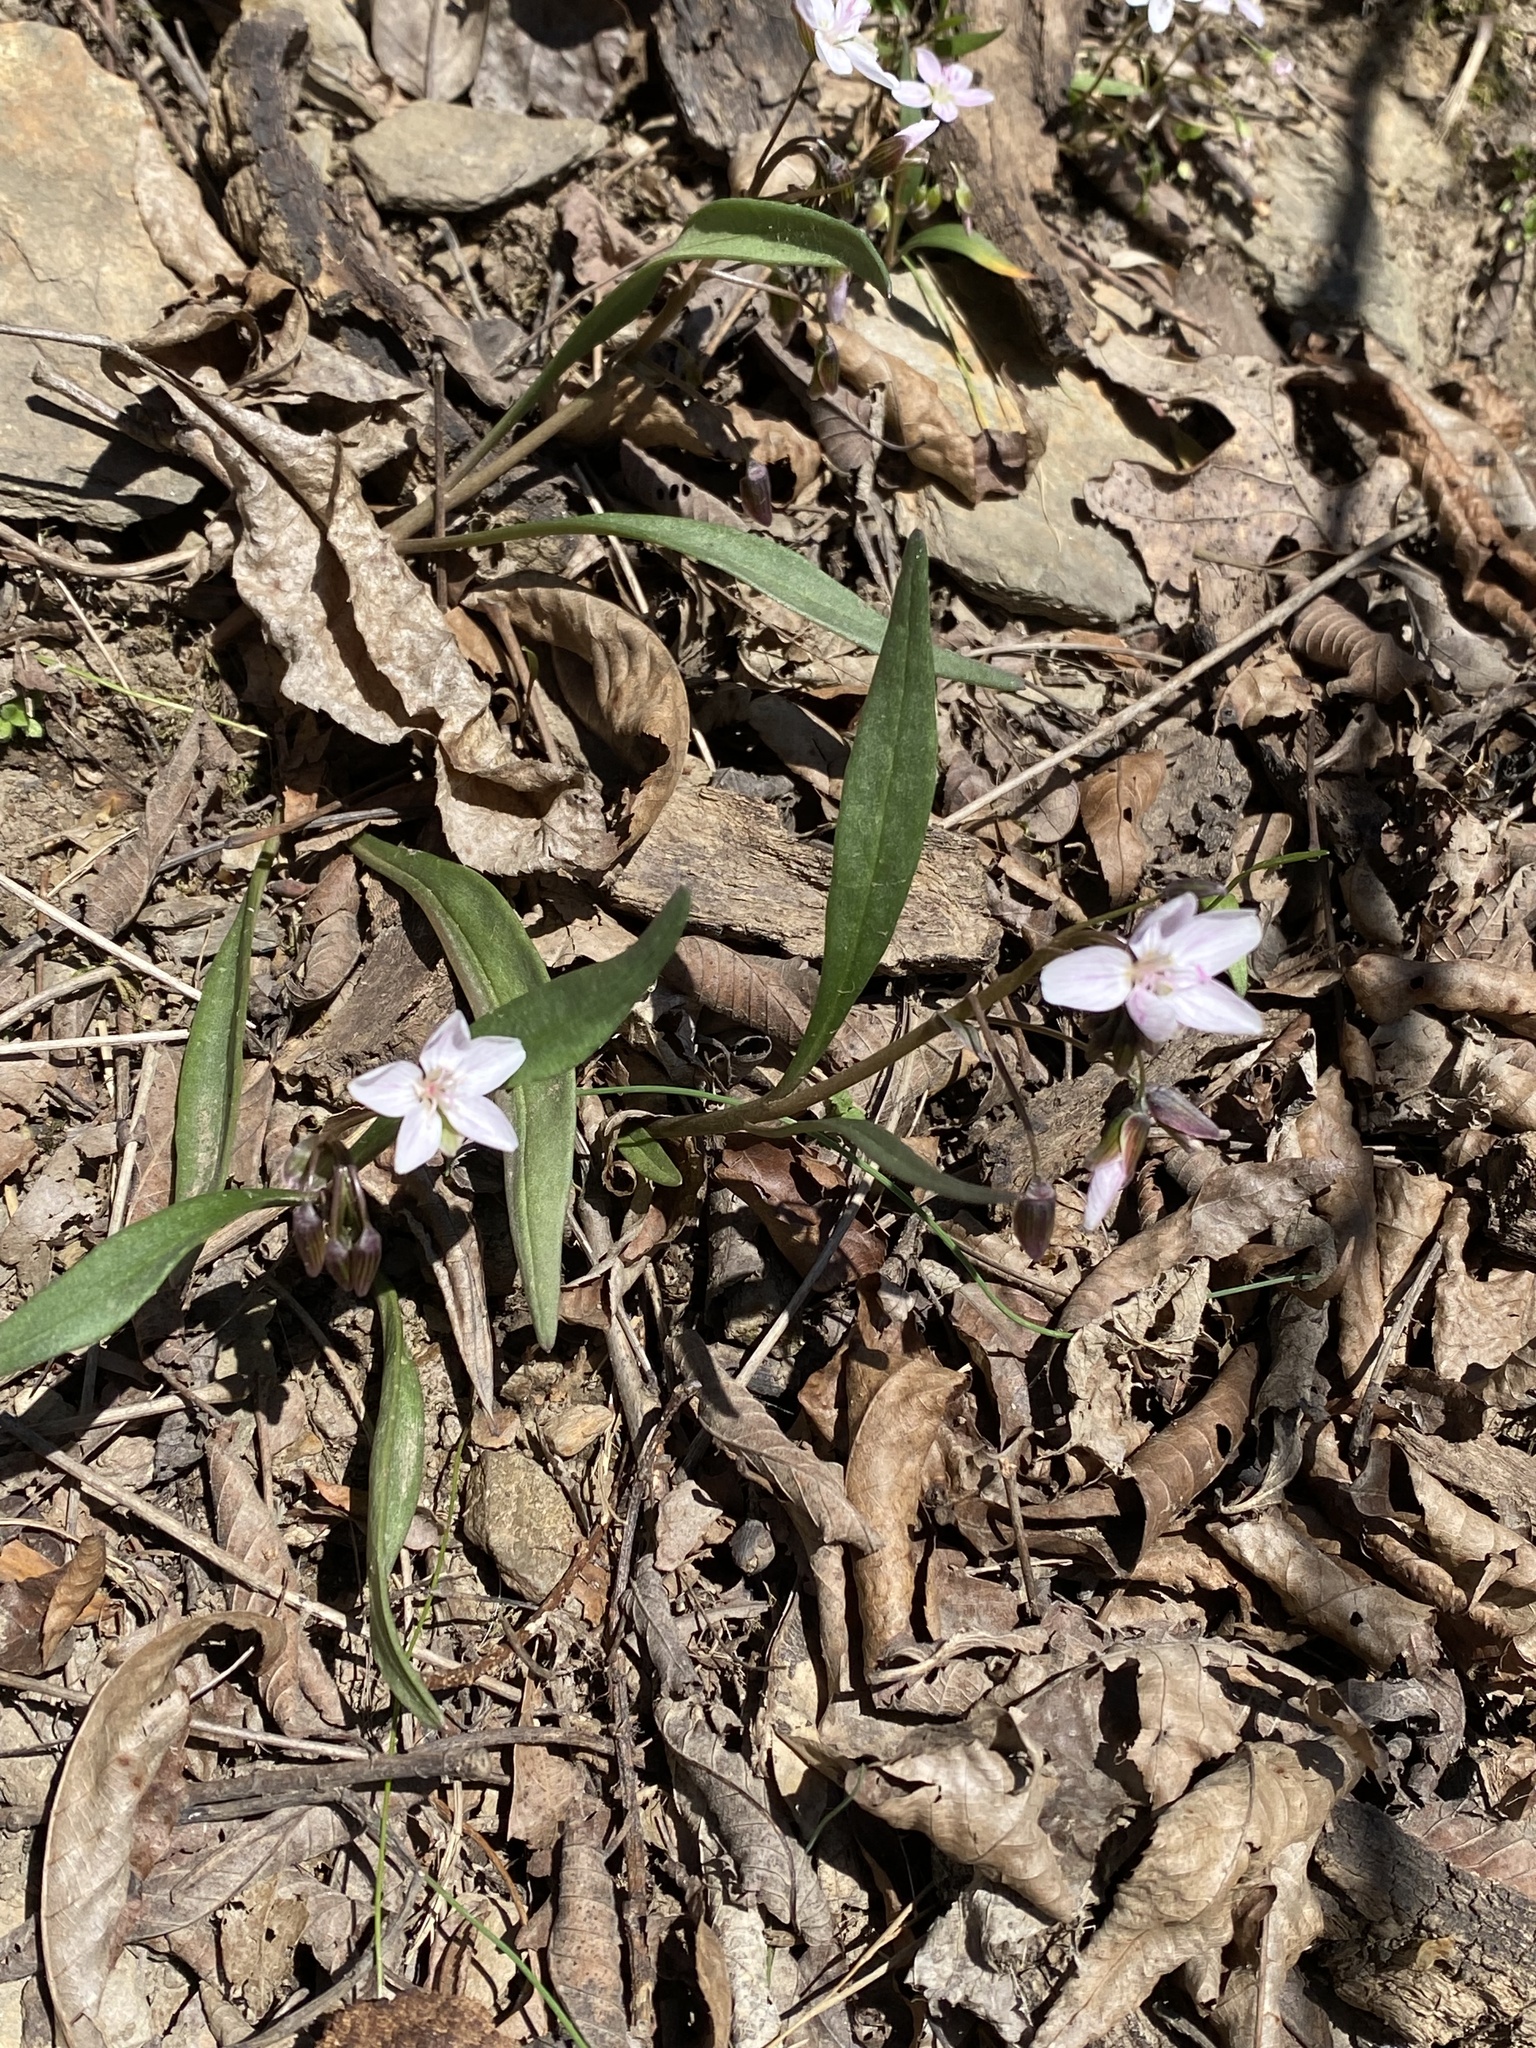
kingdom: Plantae
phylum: Tracheophyta
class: Magnoliopsida
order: Caryophyllales
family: Montiaceae
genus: Claytonia
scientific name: Claytonia virginica
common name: Virginia springbeauty
